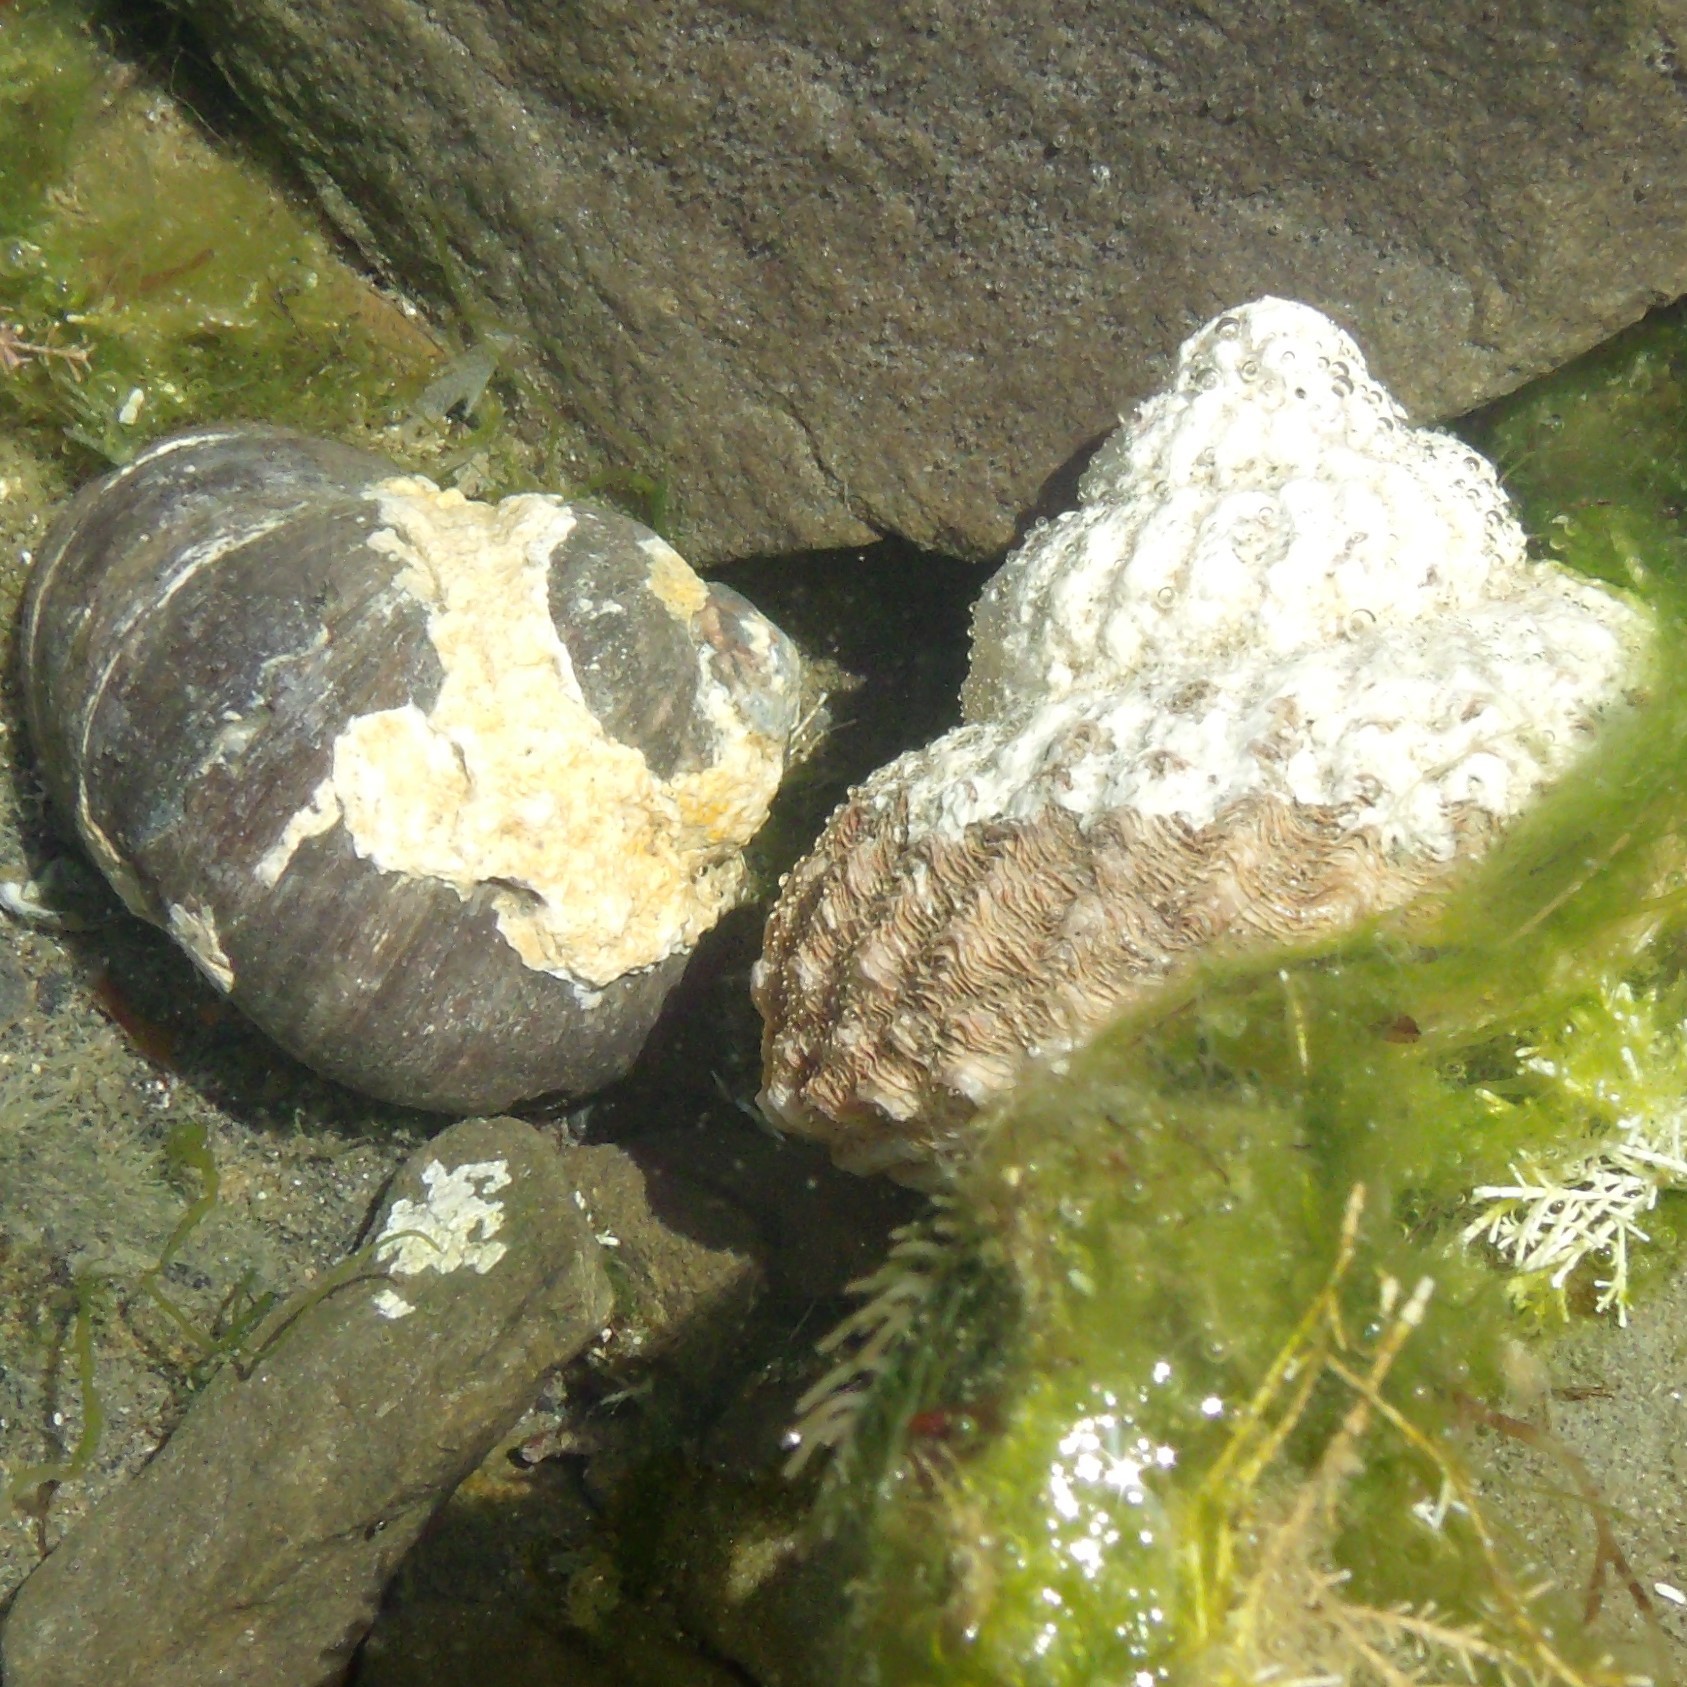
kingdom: Animalia
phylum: Mollusca
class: Gastropoda
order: Trochida
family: Turbinidae
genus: Lunella
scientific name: Lunella smaragda
